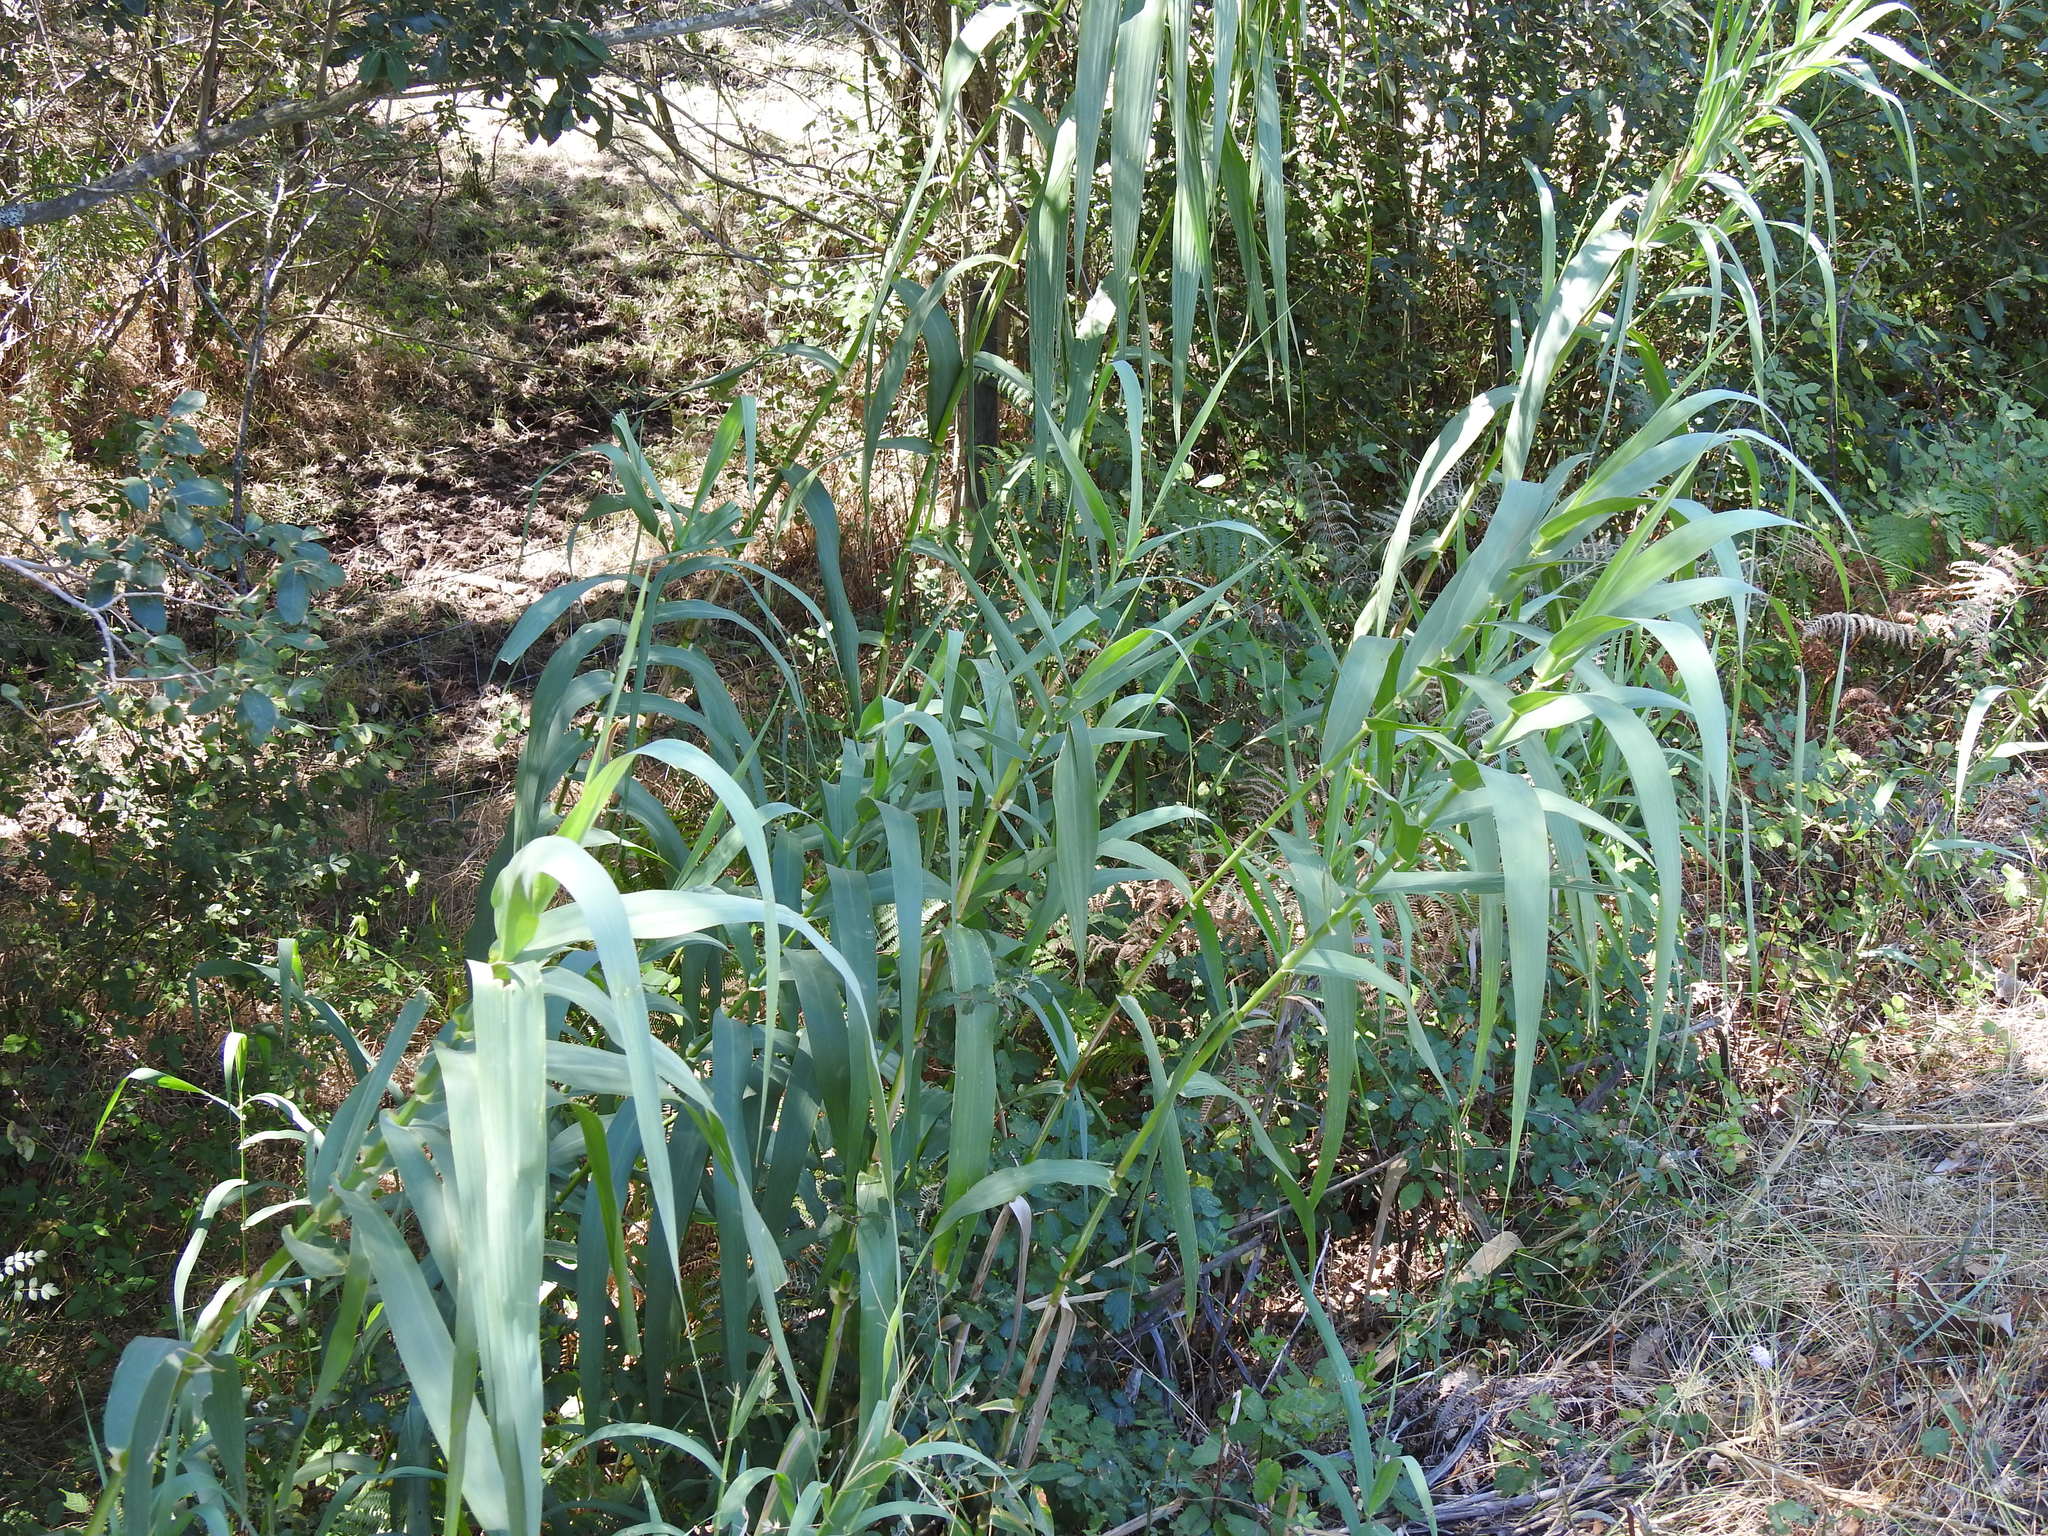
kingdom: Plantae
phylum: Tracheophyta
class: Liliopsida
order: Poales
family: Poaceae
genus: Arundo
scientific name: Arundo donax
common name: Giant reed
